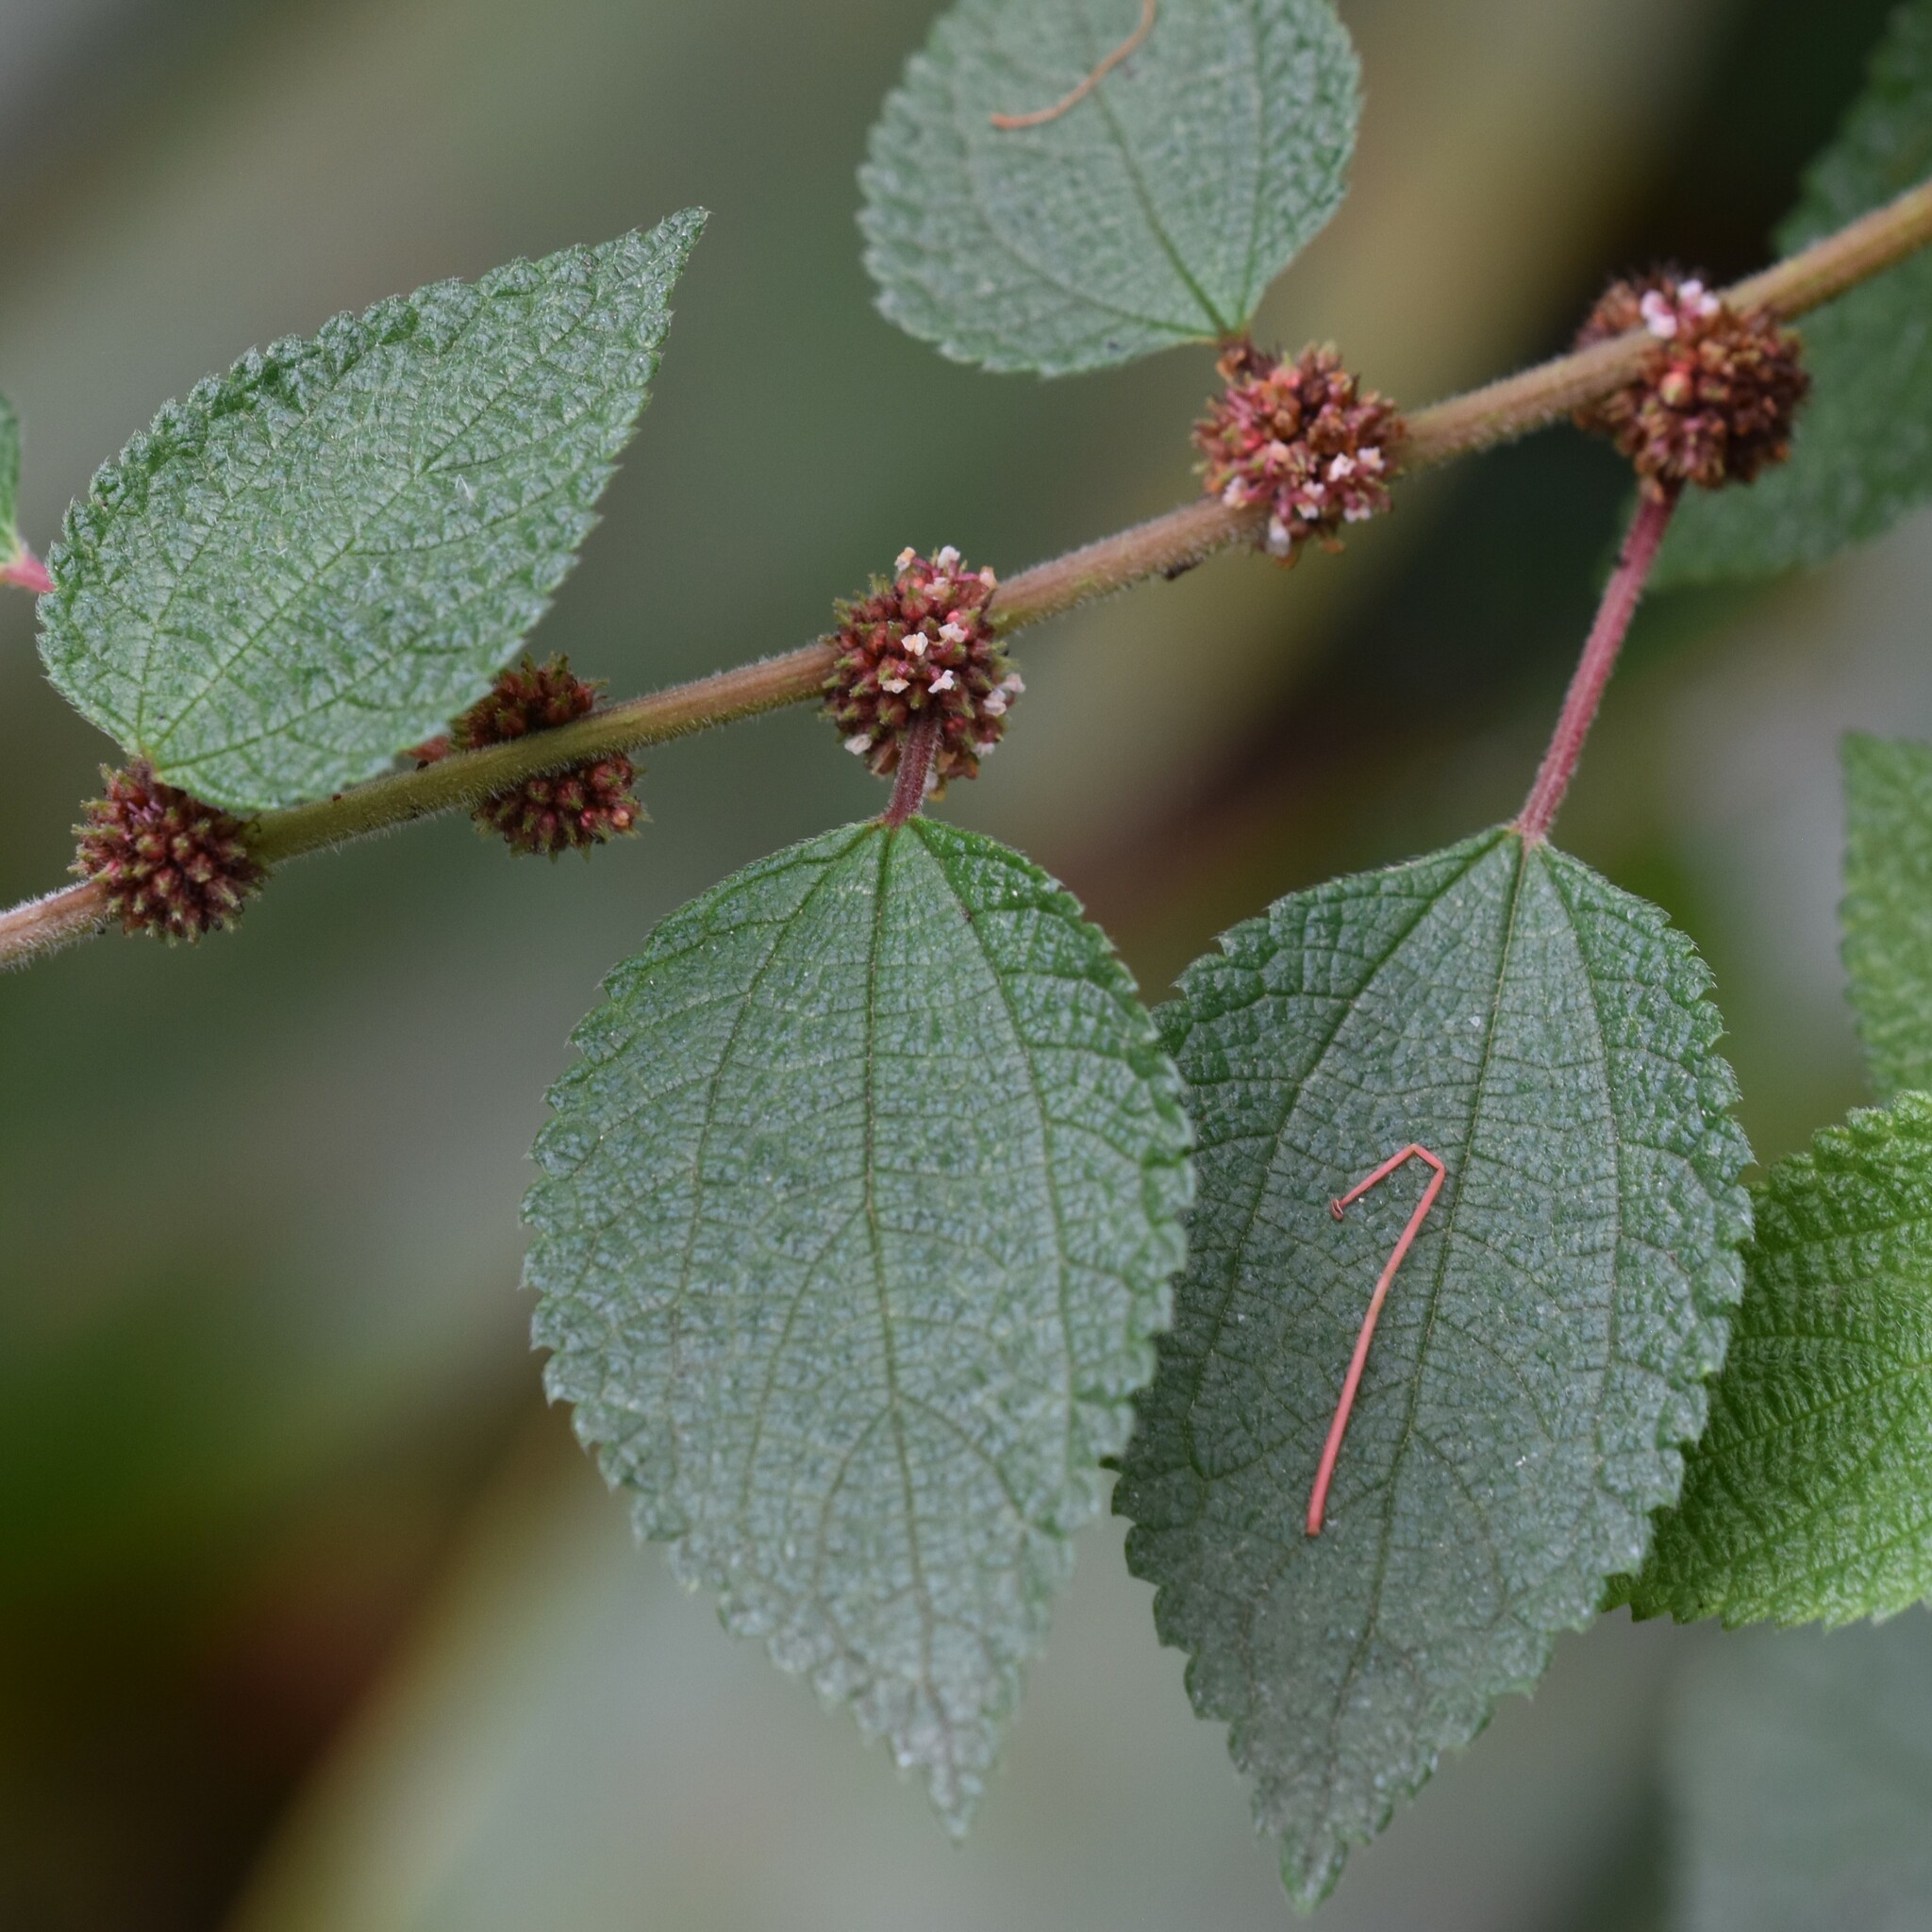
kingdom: Plantae
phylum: Tracheophyta
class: Magnoliopsida
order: Rosales
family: Urticaceae
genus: Phenax
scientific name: Phenax hirtus
